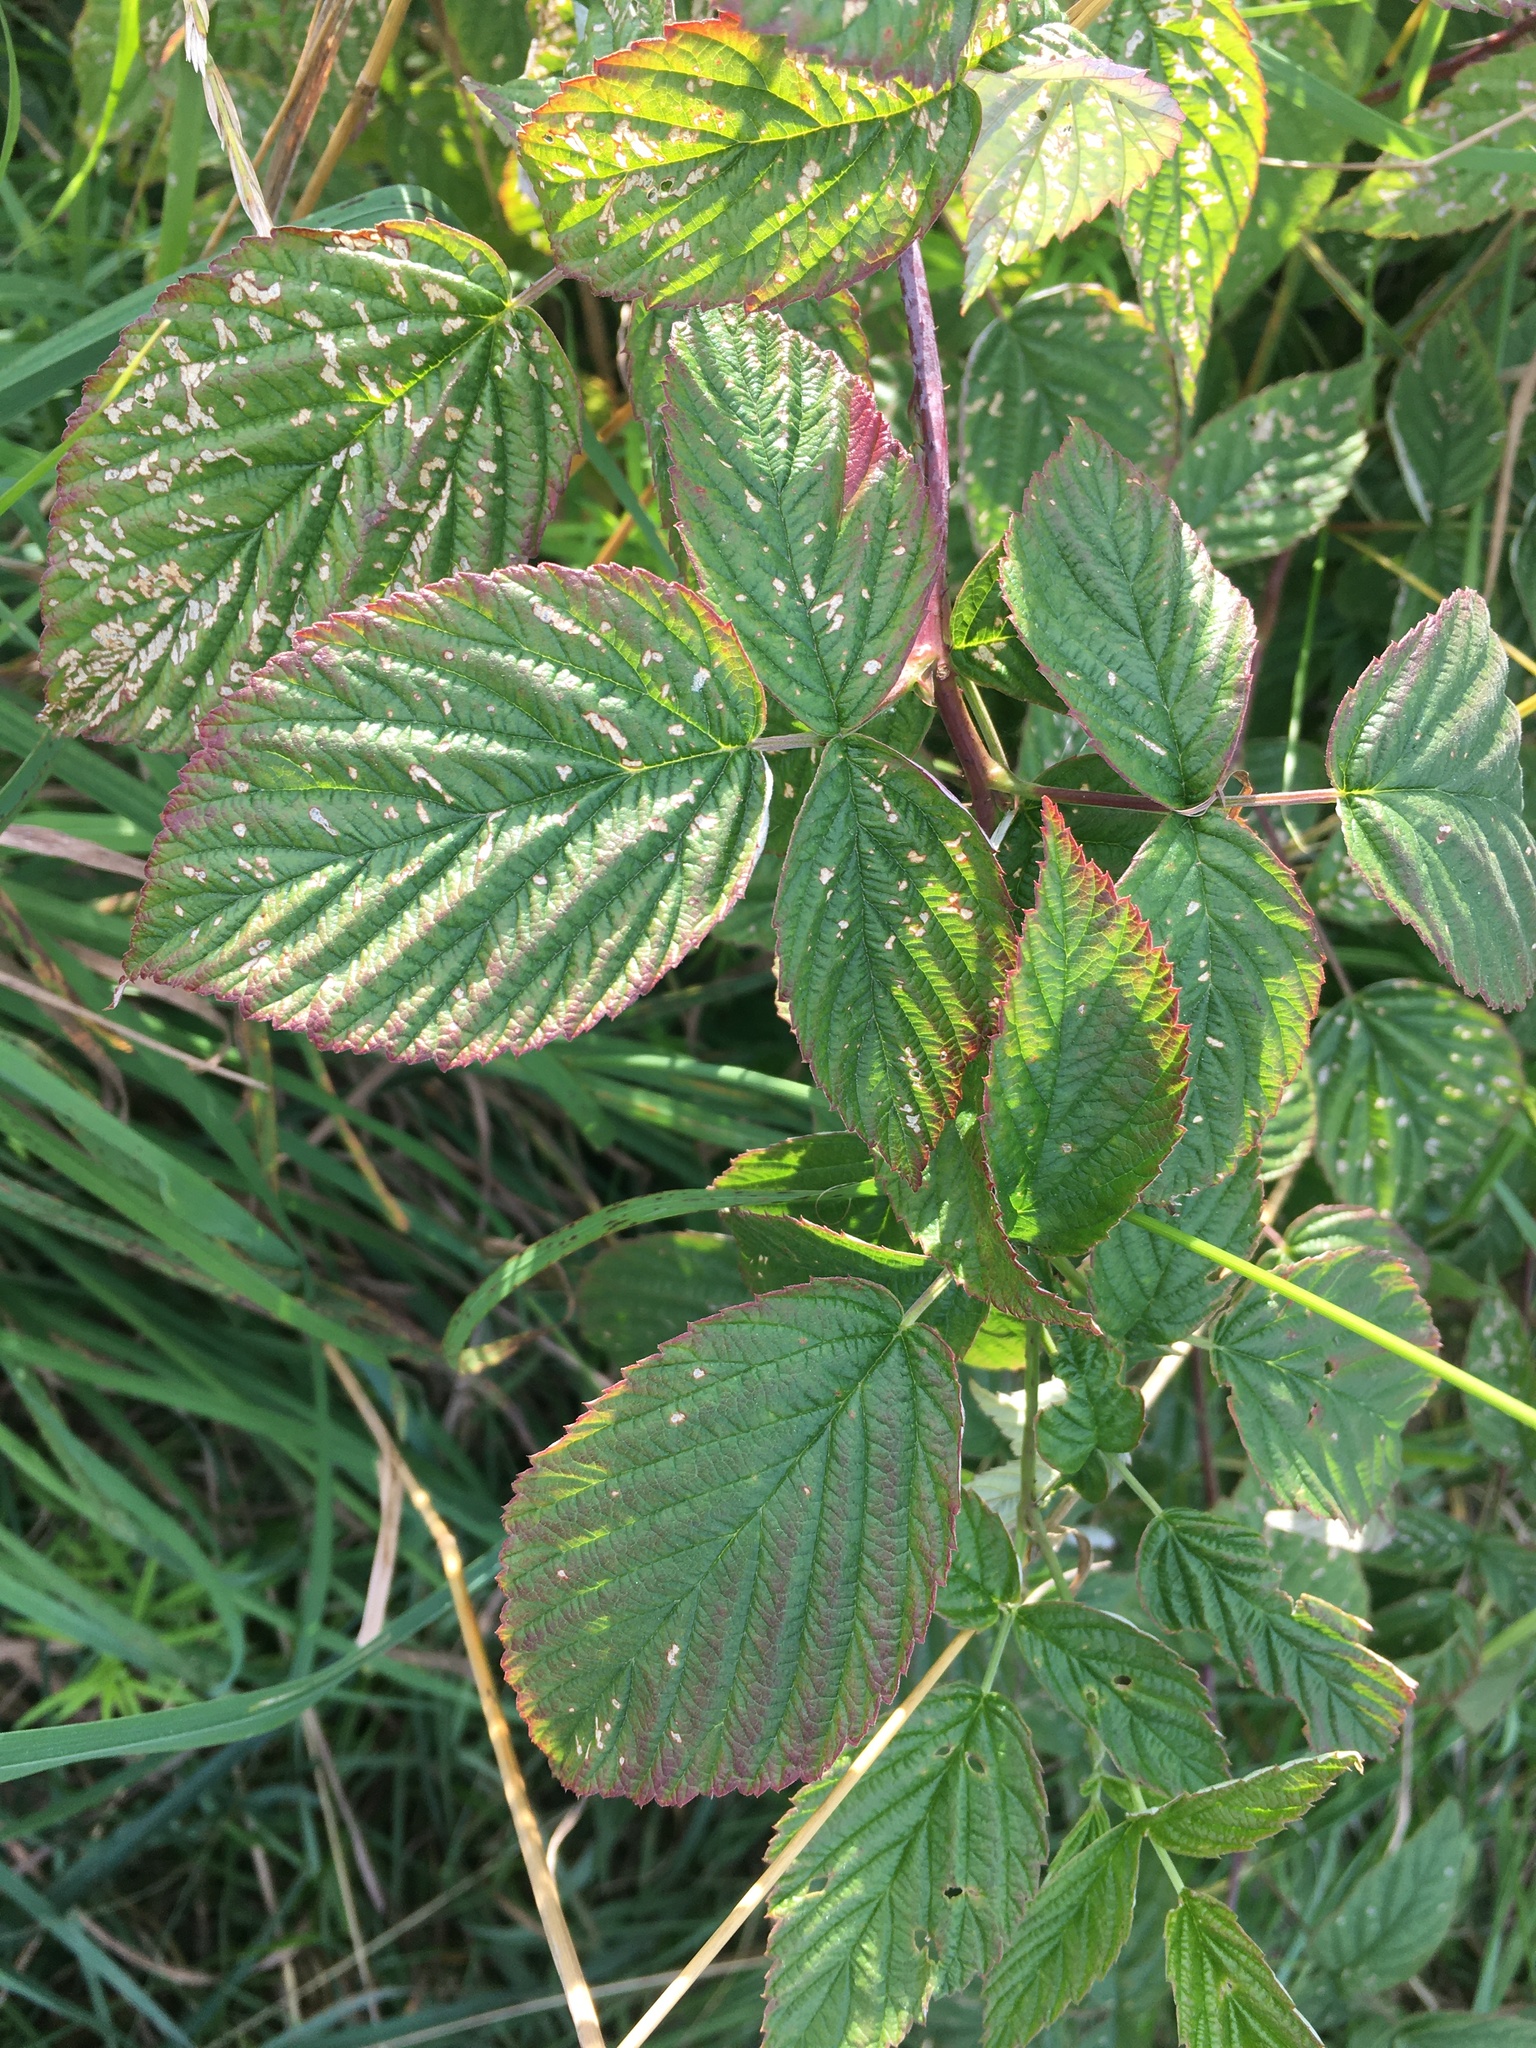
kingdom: Plantae
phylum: Tracheophyta
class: Magnoliopsida
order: Rosales
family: Rosaceae
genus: Rubus
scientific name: Rubus idaeus
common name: Raspberry
